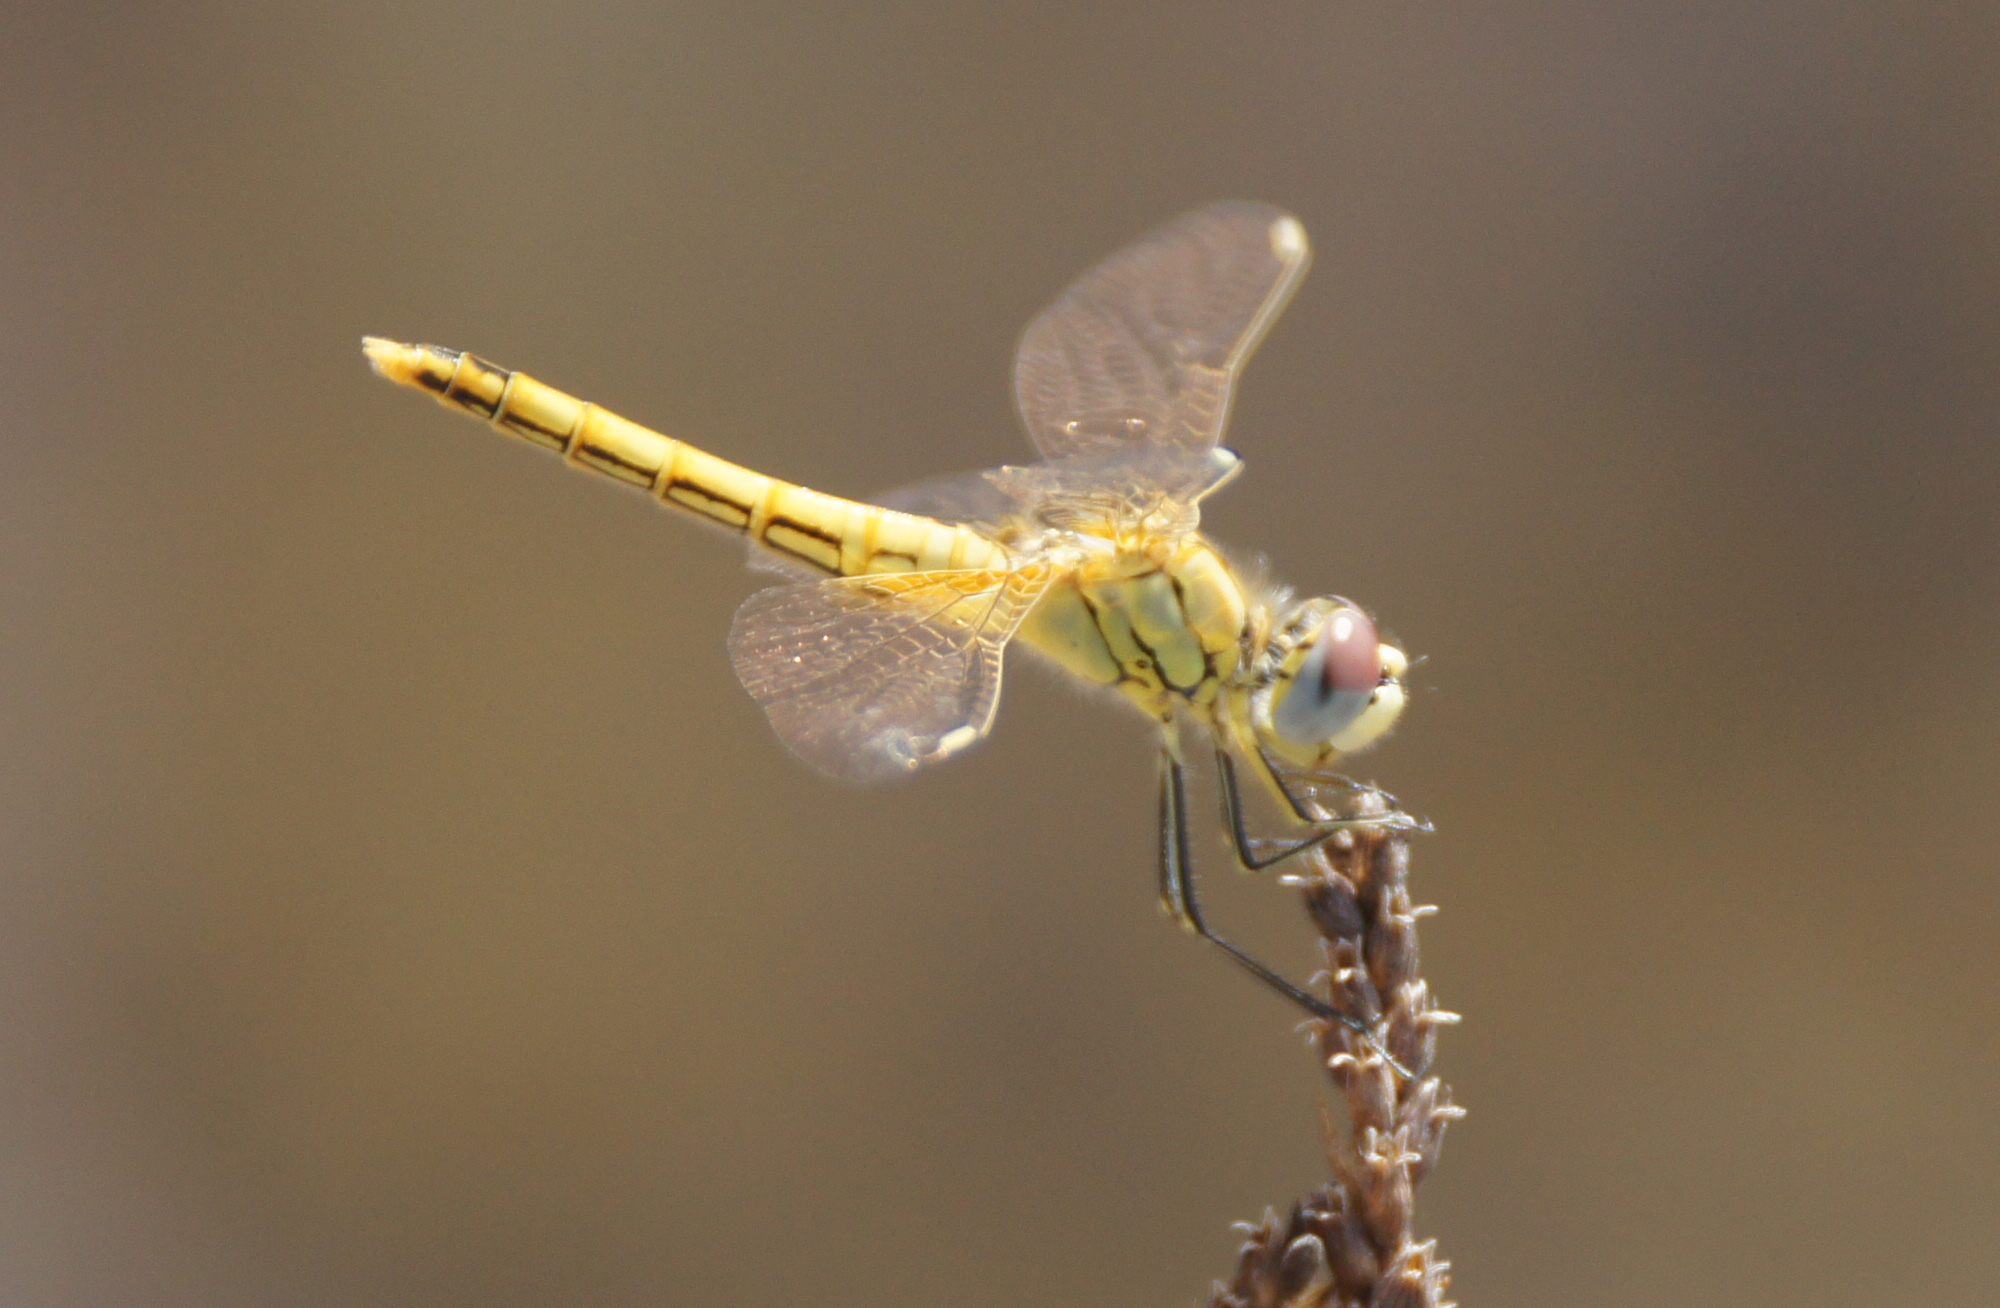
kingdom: Animalia
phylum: Arthropoda
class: Insecta
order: Odonata
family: Libellulidae
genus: Sympetrum
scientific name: Sympetrum fonscolombii
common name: Red-veined darter
